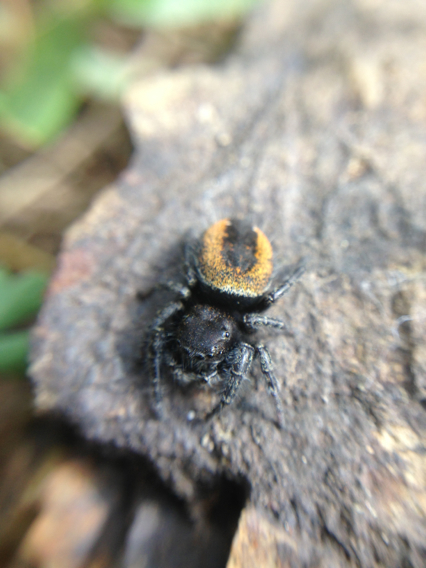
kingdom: Animalia
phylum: Arthropoda
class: Arachnida
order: Araneae
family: Salticidae
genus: Phidippus
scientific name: Phidippus johnsoni
